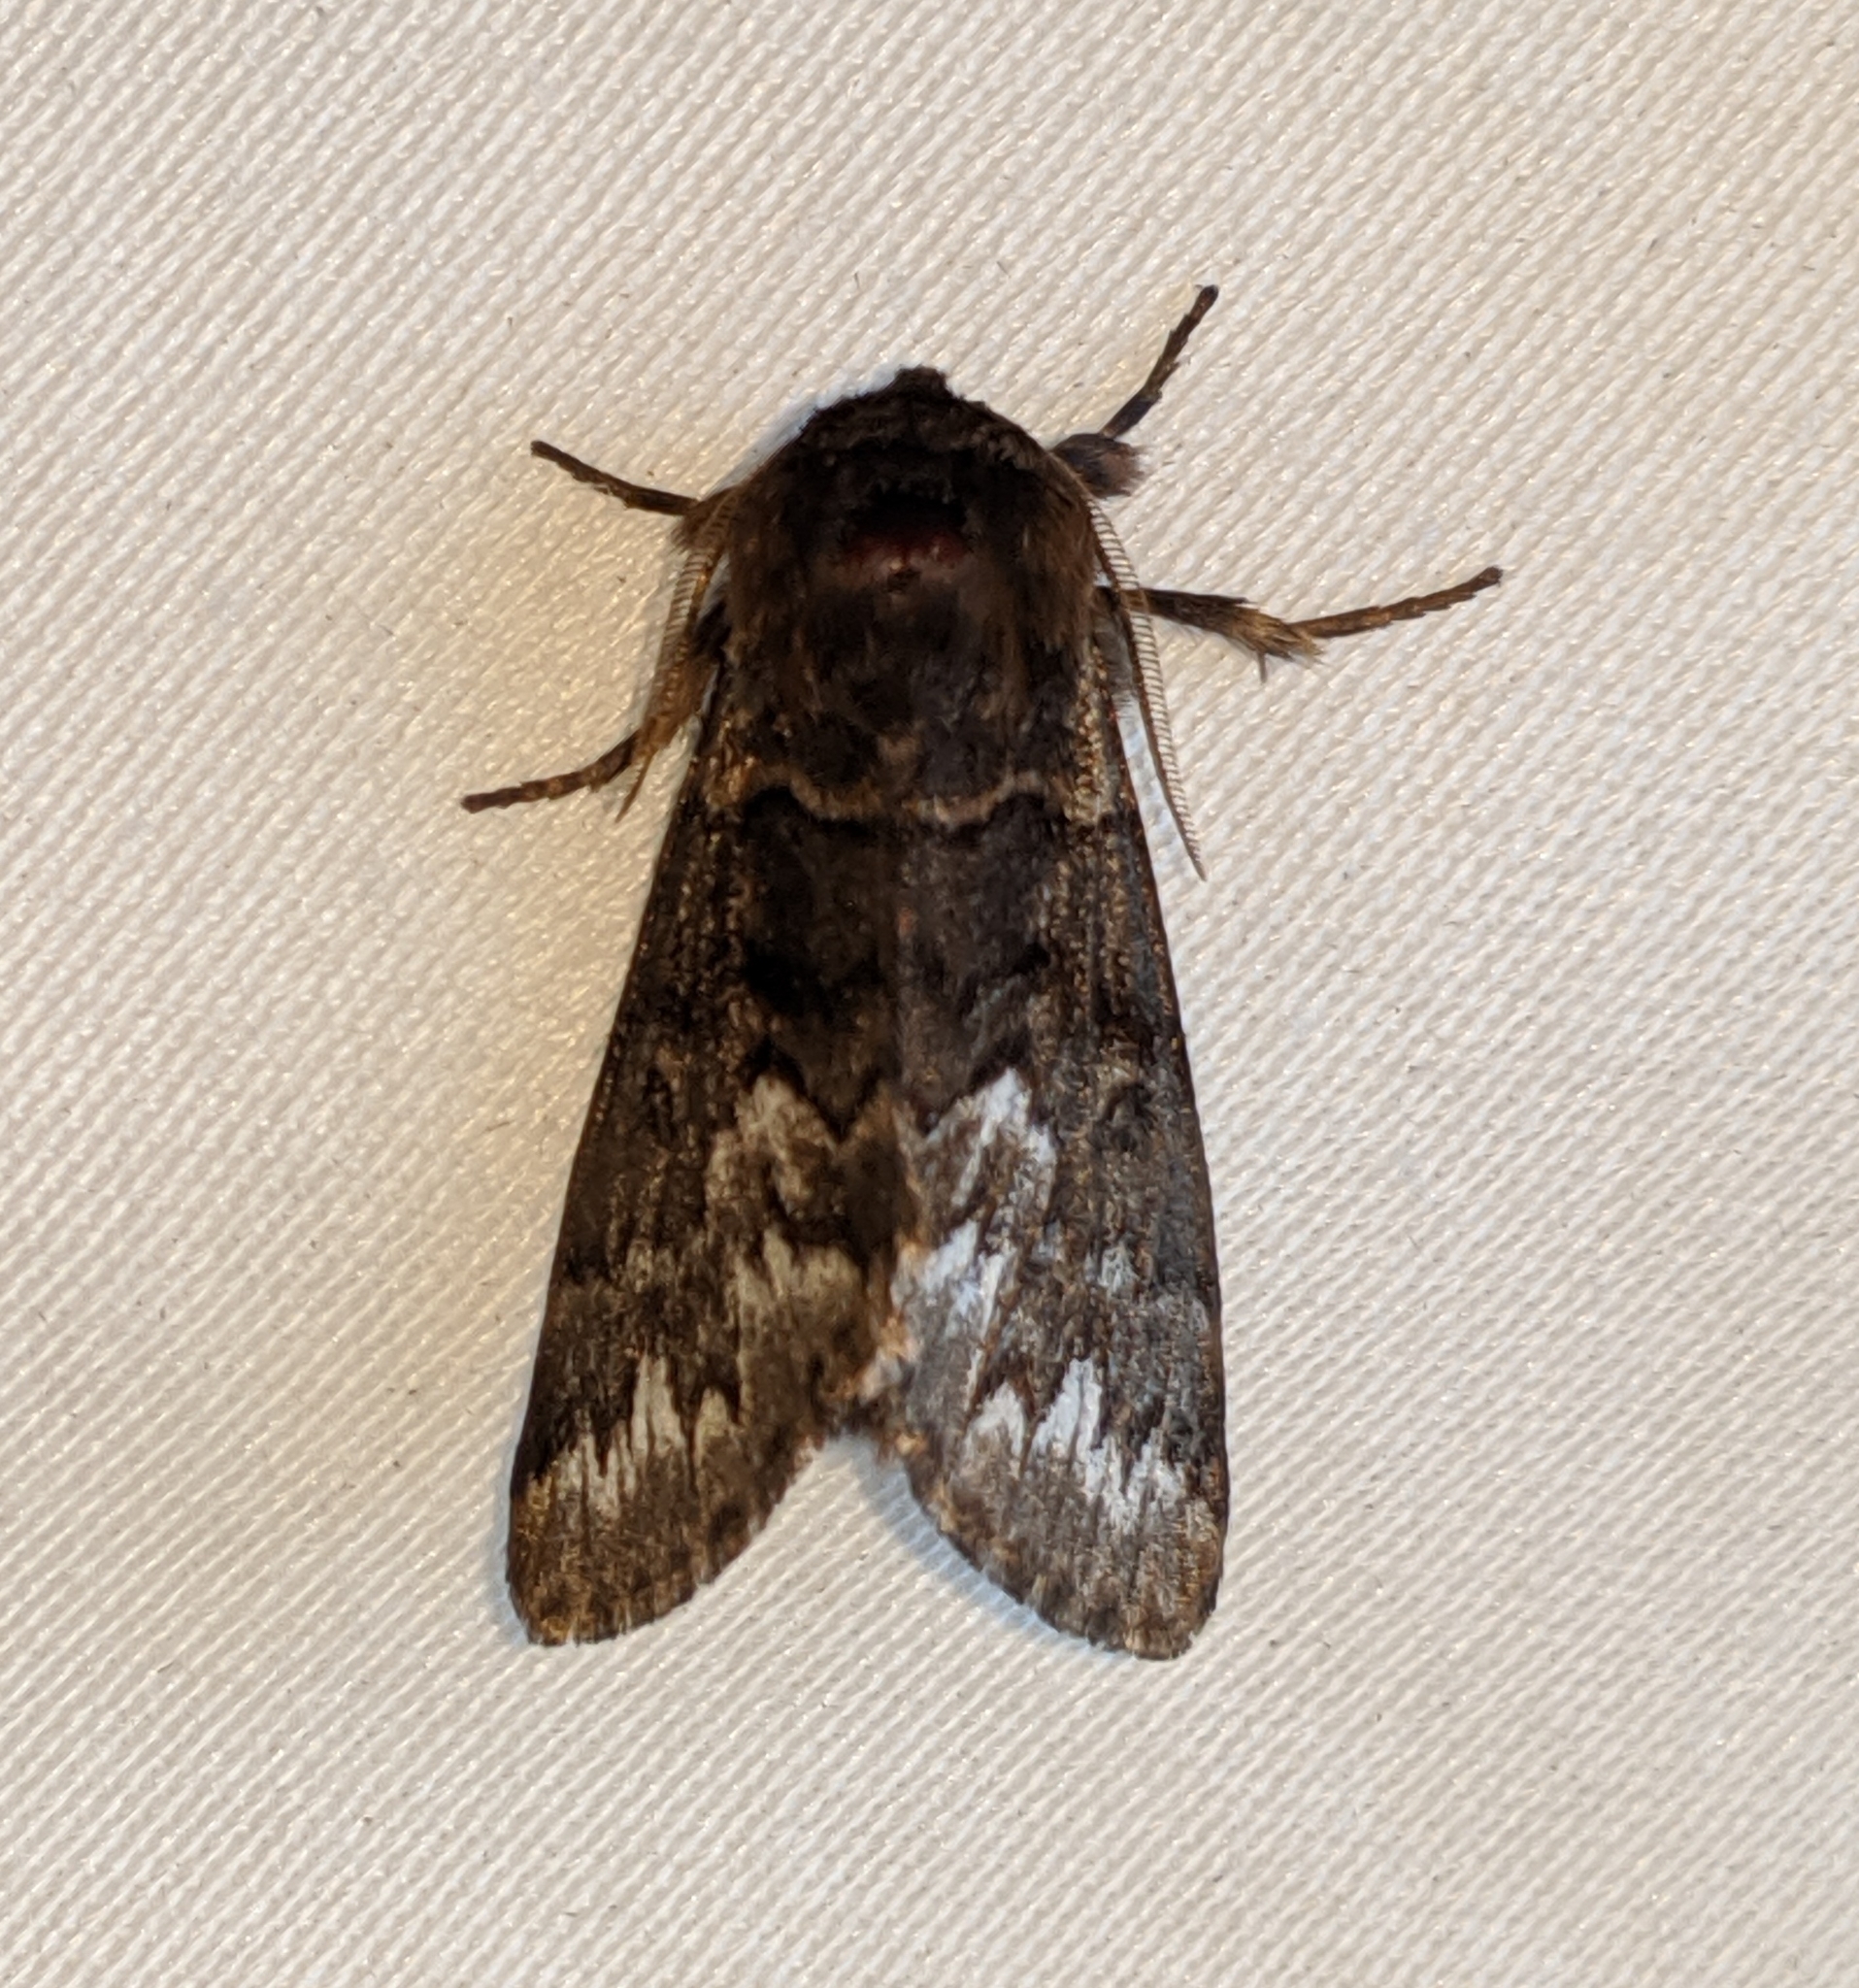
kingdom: Animalia
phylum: Arthropoda
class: Insecta
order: Lepidoptera
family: Noctuidae
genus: Panthea
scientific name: Panthea virginarius
